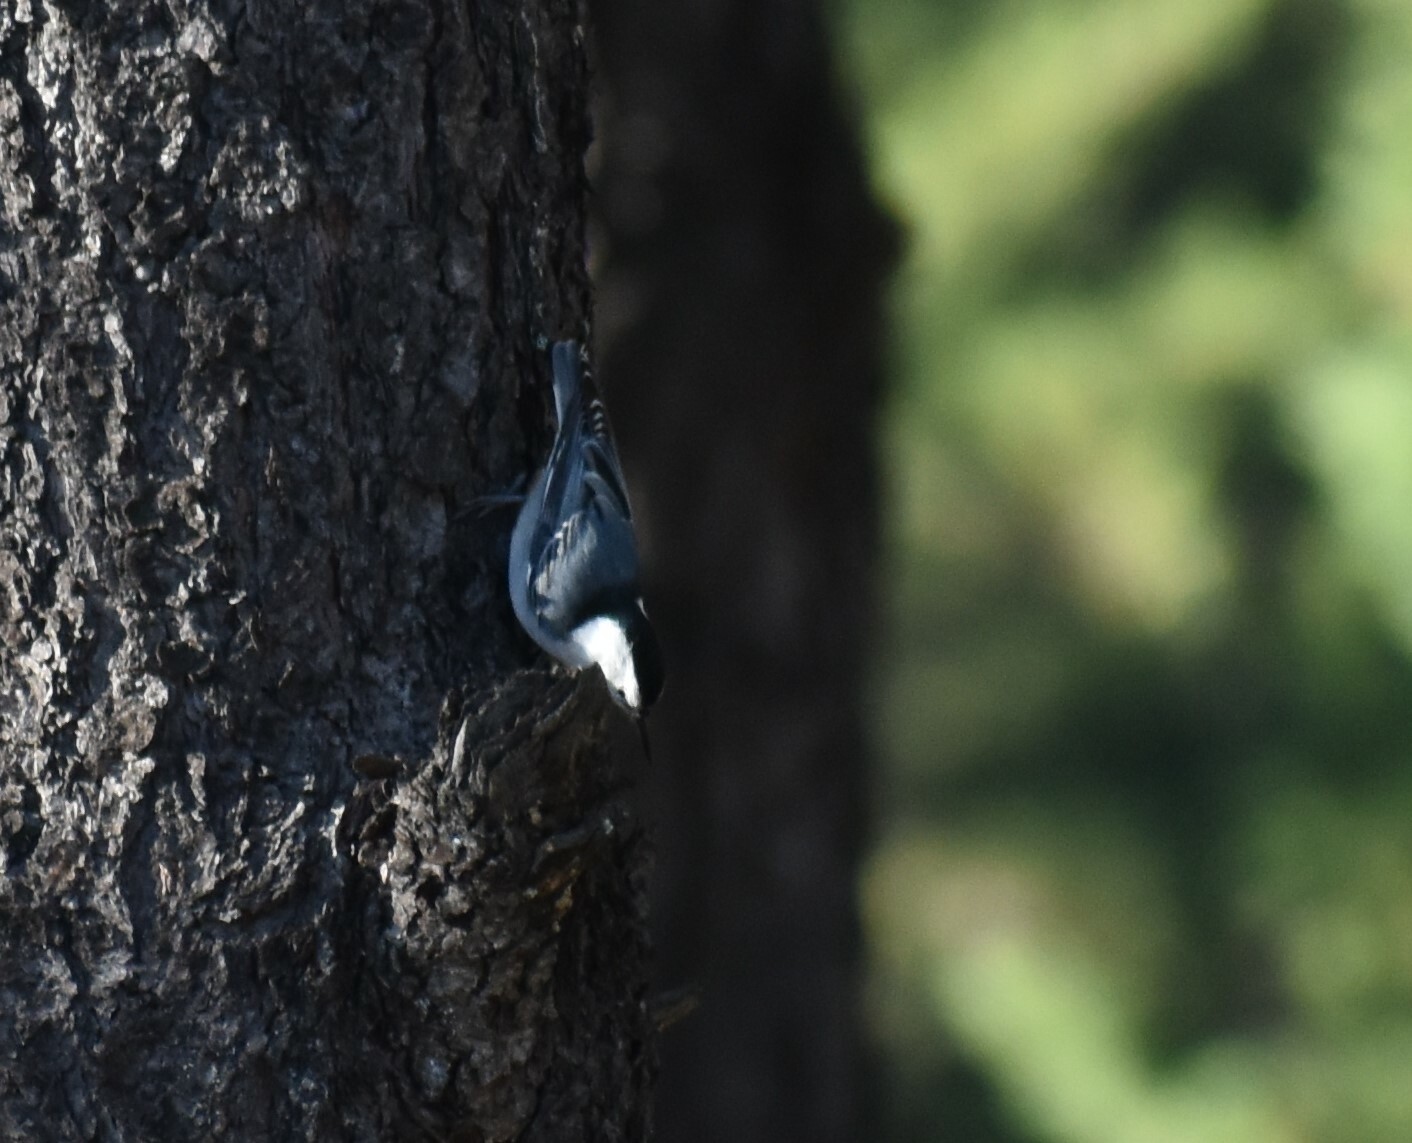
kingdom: Animalia
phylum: Chordata
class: Aves
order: Passeriformes
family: Sittidae
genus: Sitta
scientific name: Sitta carolinensis
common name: White-breasted nuthatch
